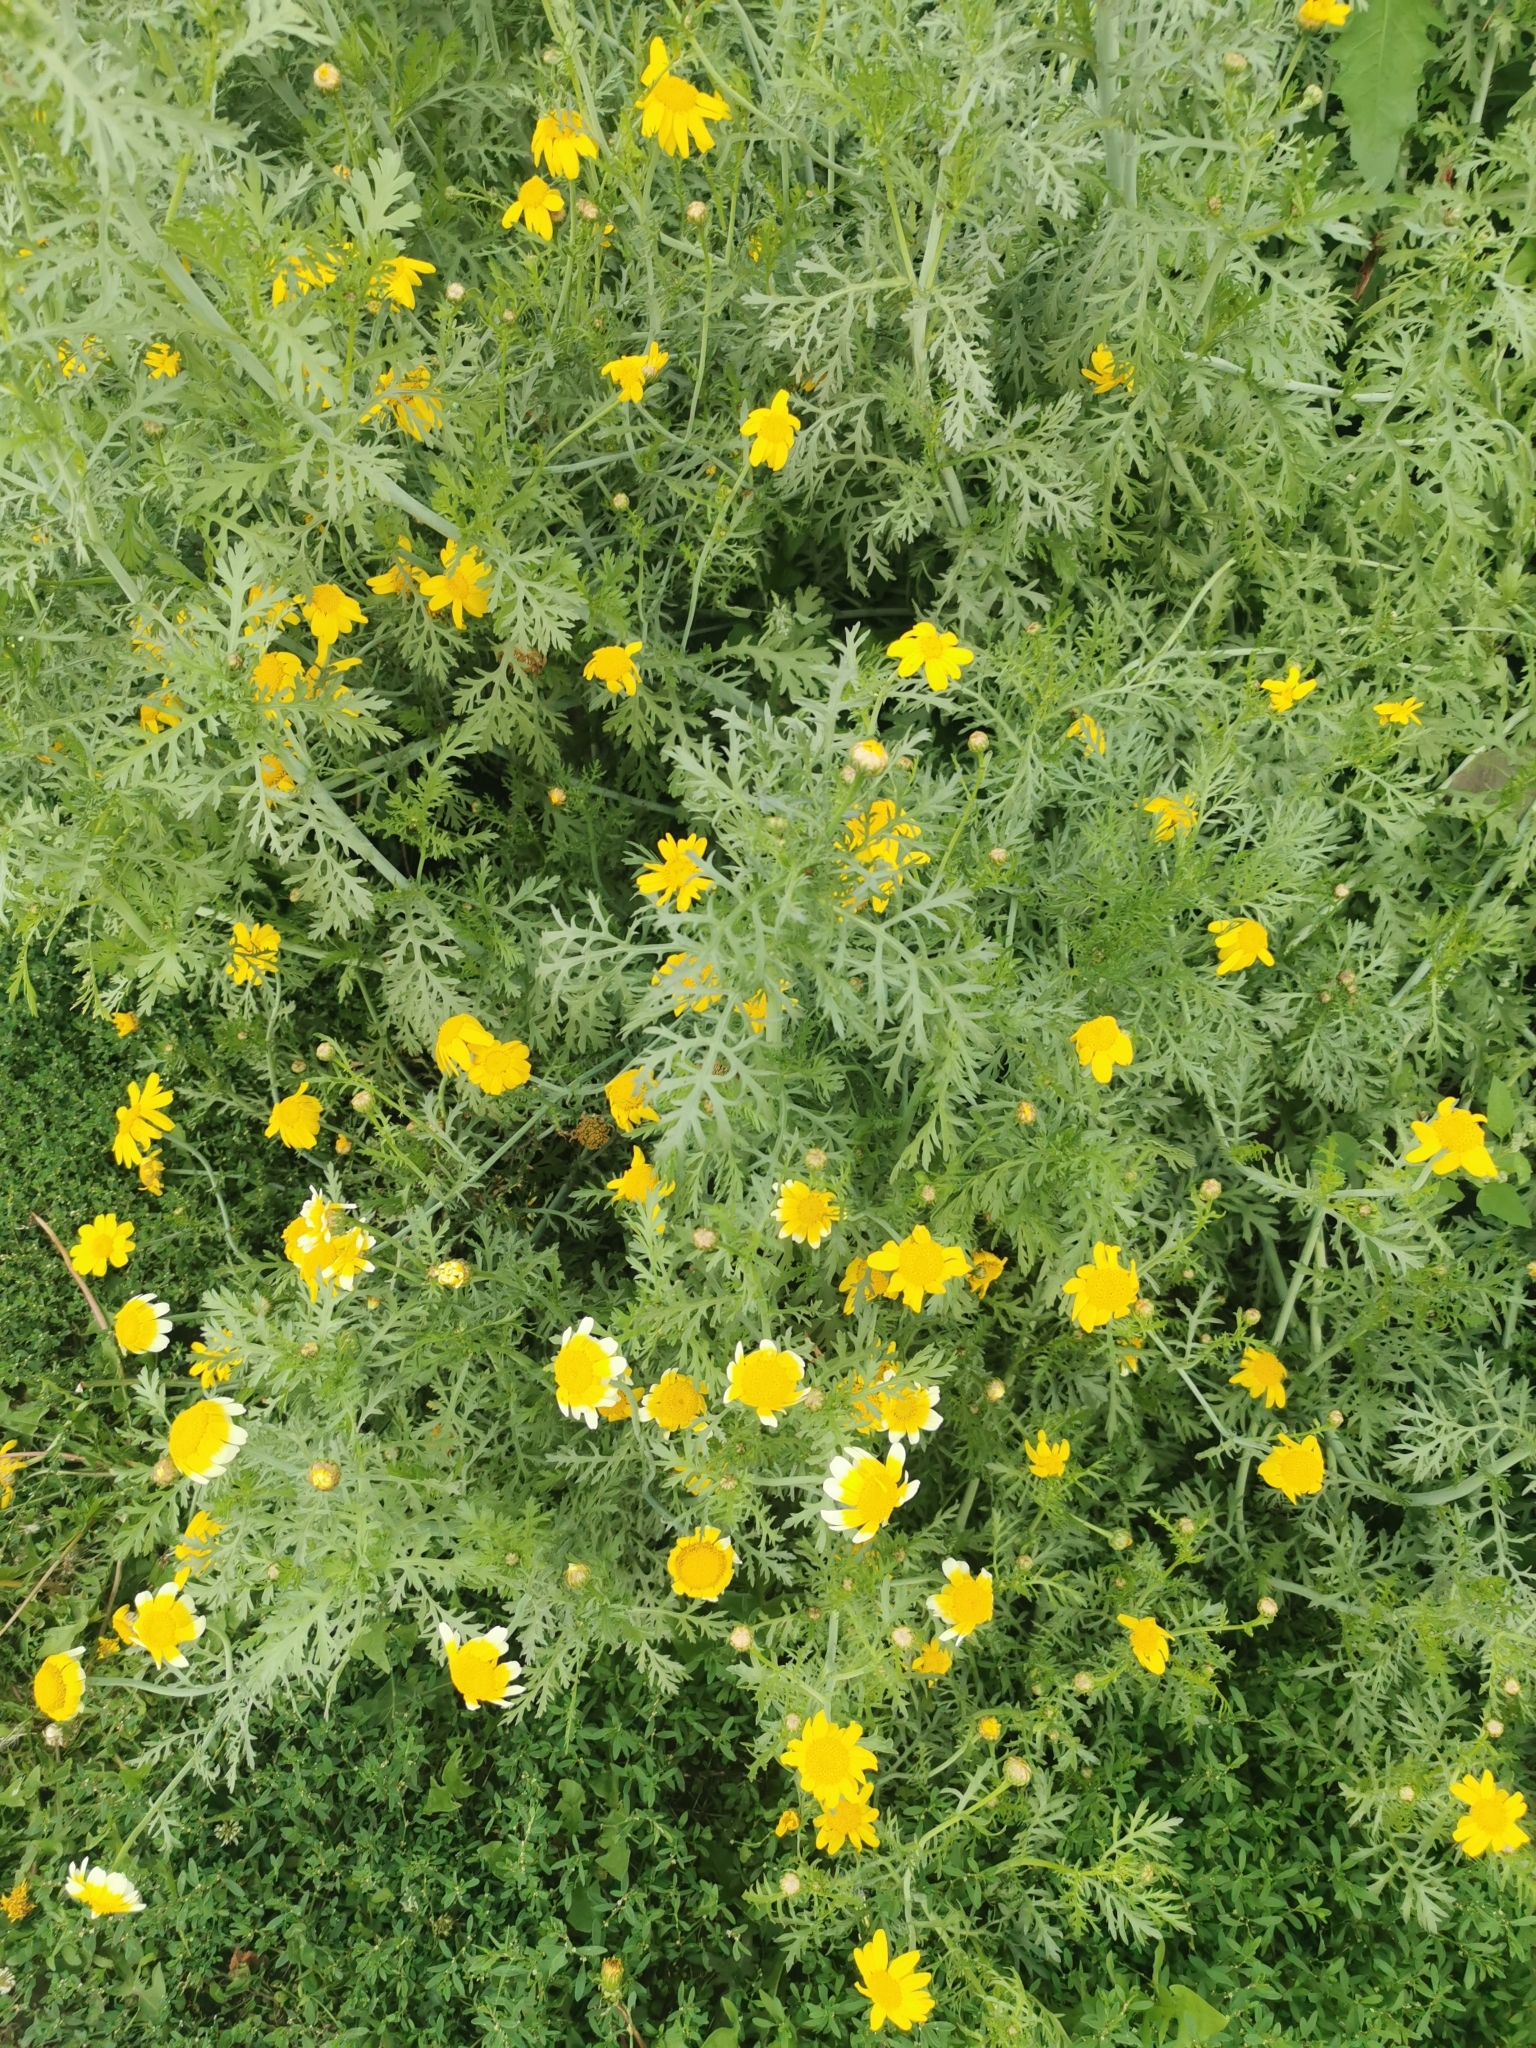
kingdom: Plantae
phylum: Tracheophyta
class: Magnoliopsida
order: Asterales
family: Asteraceae
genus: Glebionis
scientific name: Glebionis coronaria
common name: Crowndaisy
